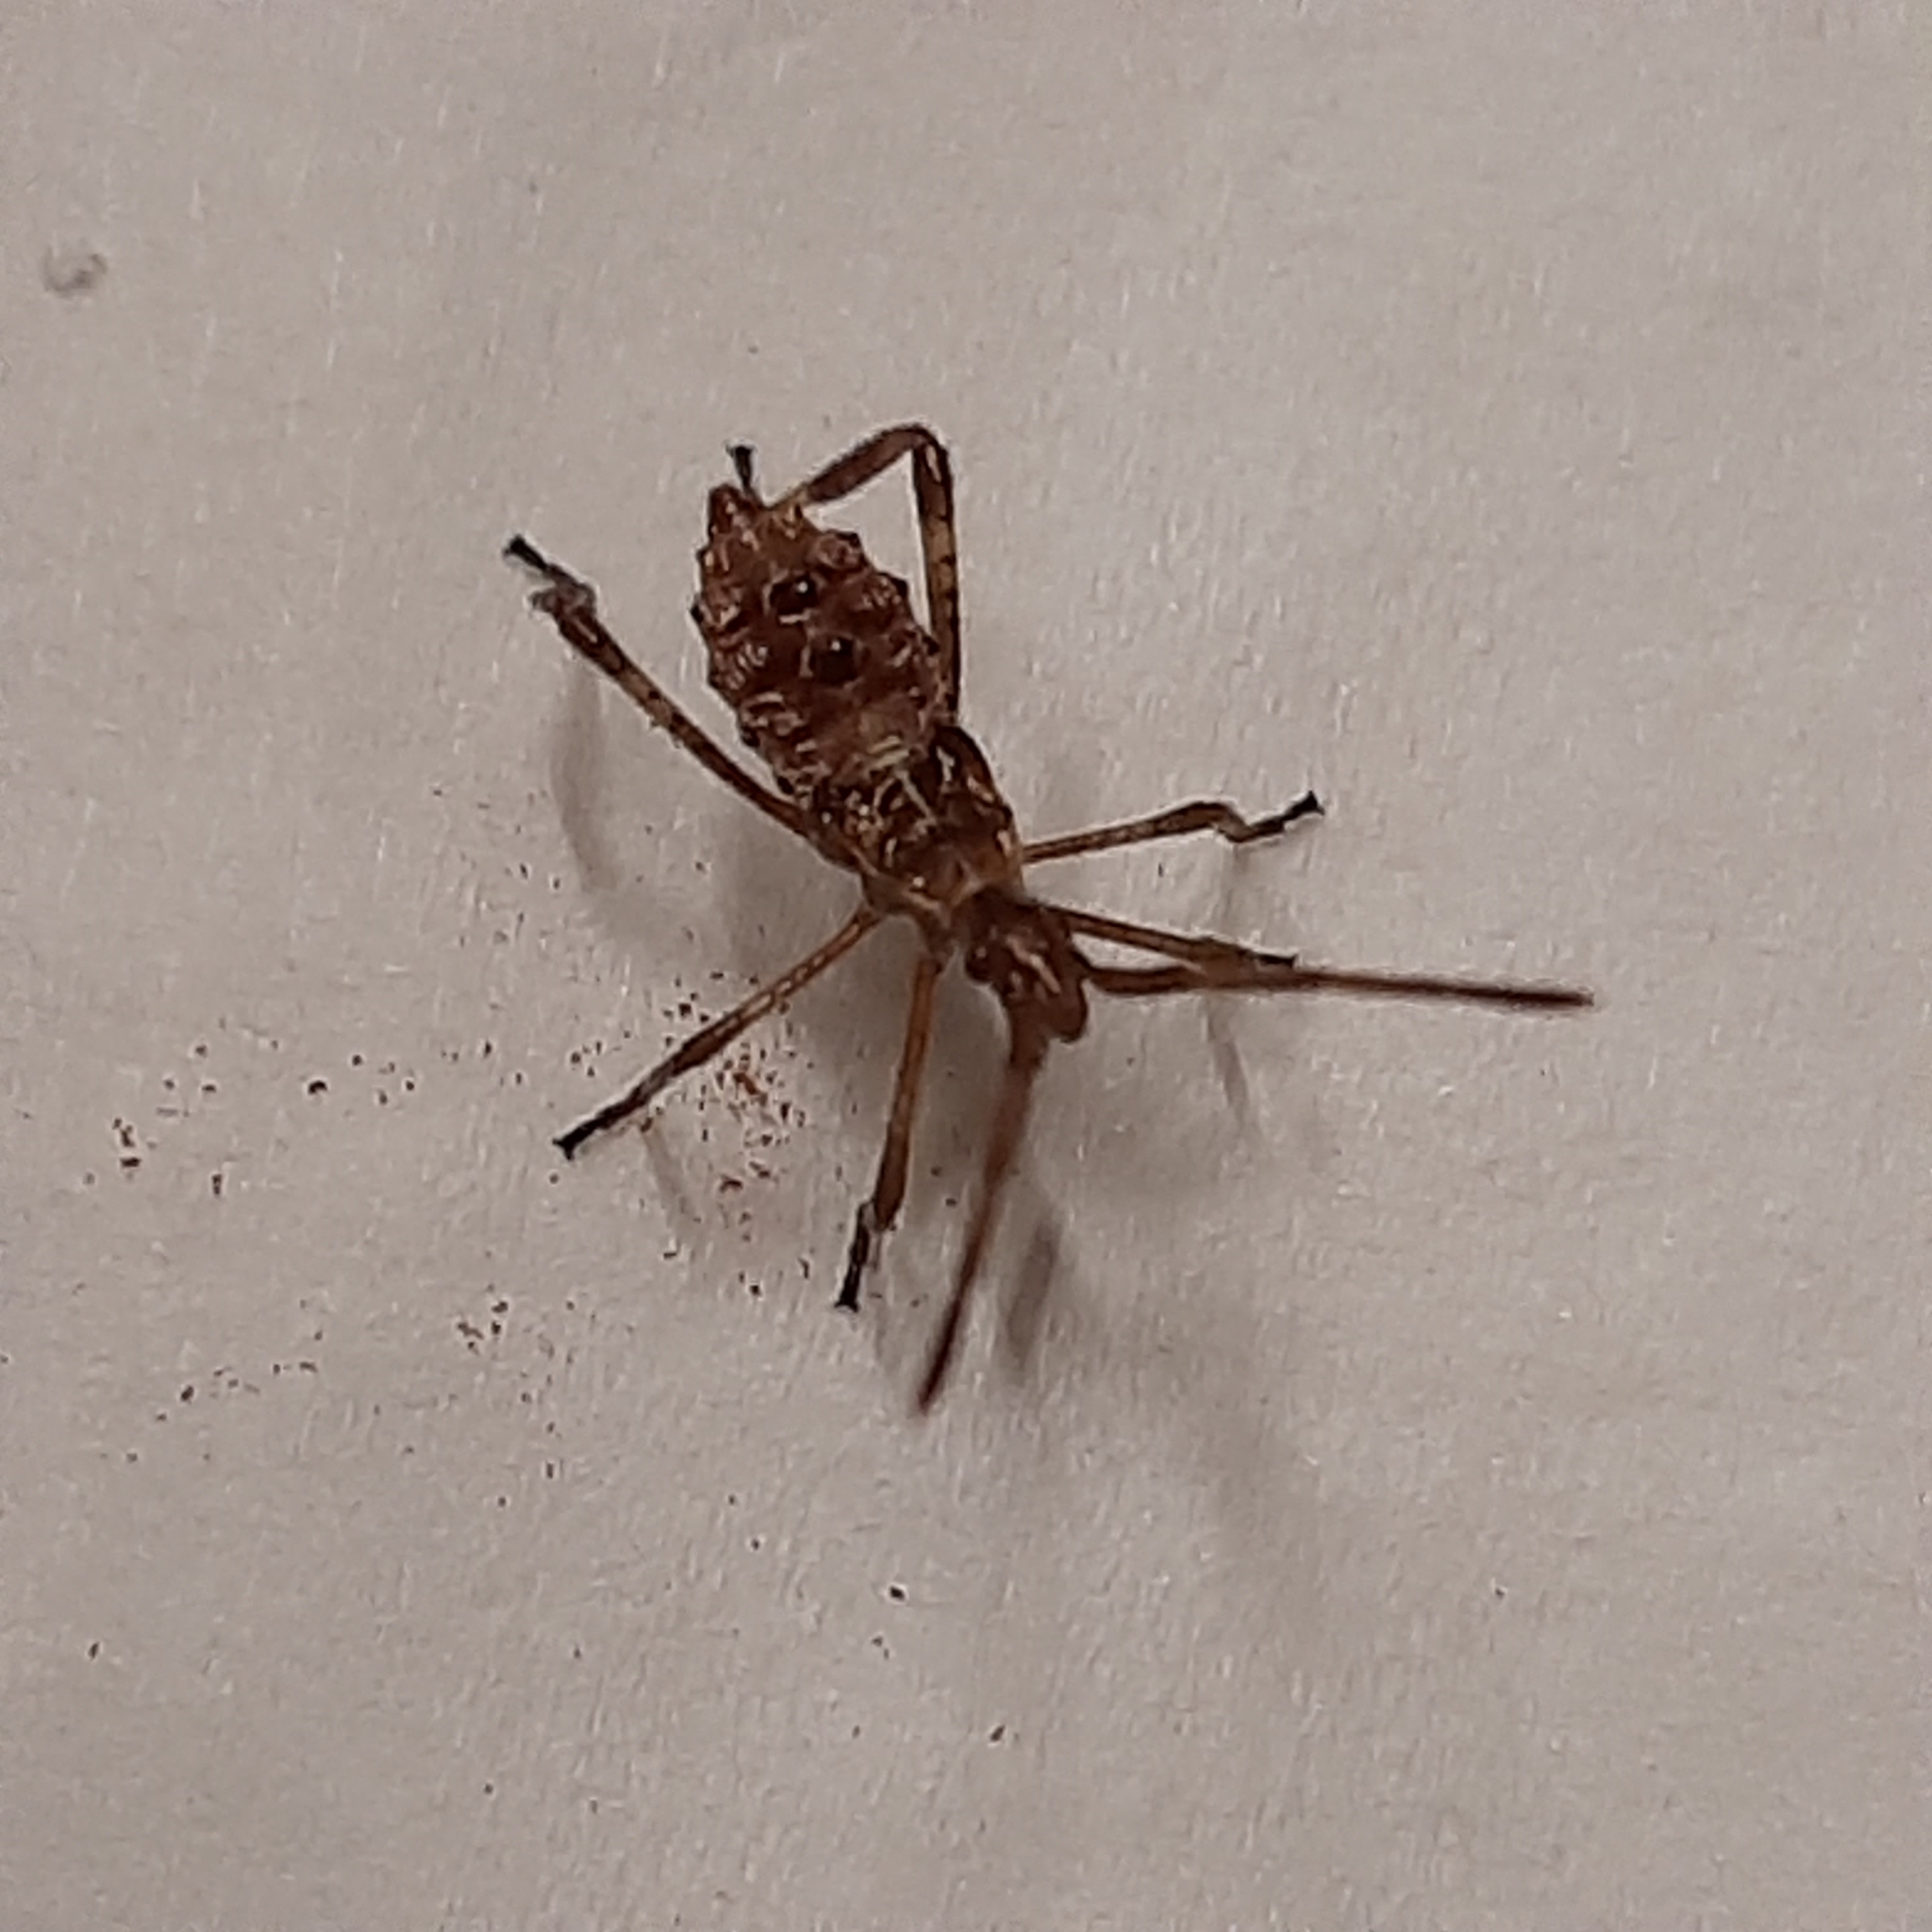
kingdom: Animalia
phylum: Arthropoda
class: Insecta
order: Hemiptera
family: Coreidae
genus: Leptoglossus
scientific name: Leptoglossus occidentalis
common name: Western conifer-seed bug
